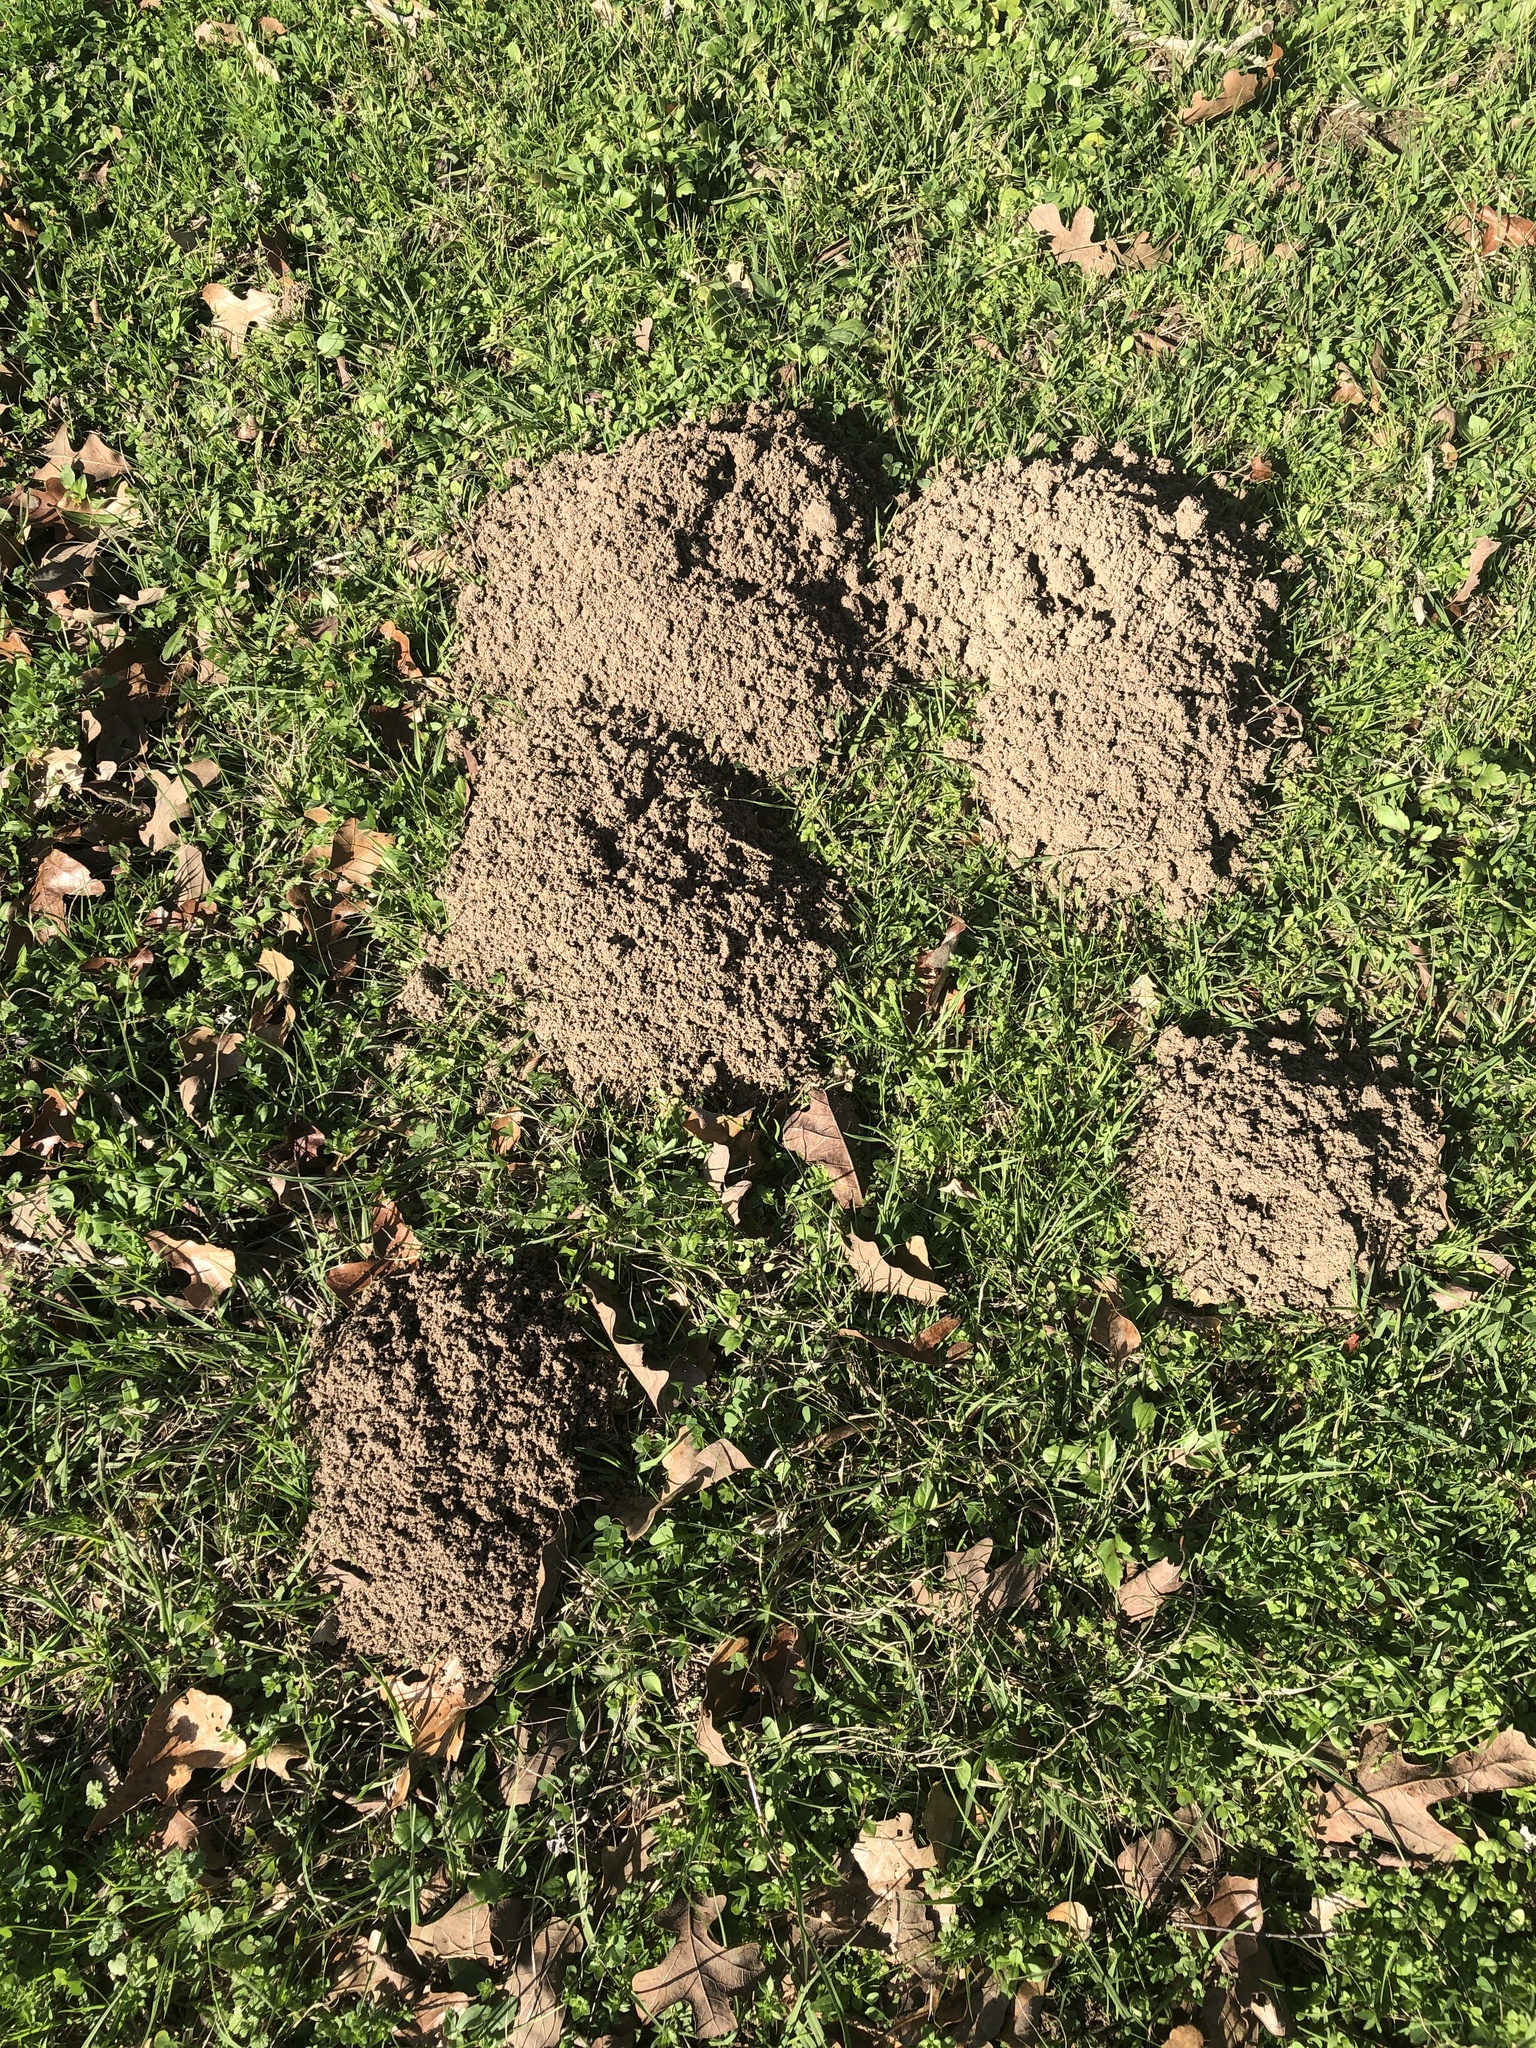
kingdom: Animalia
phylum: Chordata
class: Mammalia
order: Rodentia
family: Geomyidae
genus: Geomys
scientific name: Geomys breviceps
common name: Baird's pocket gopher
